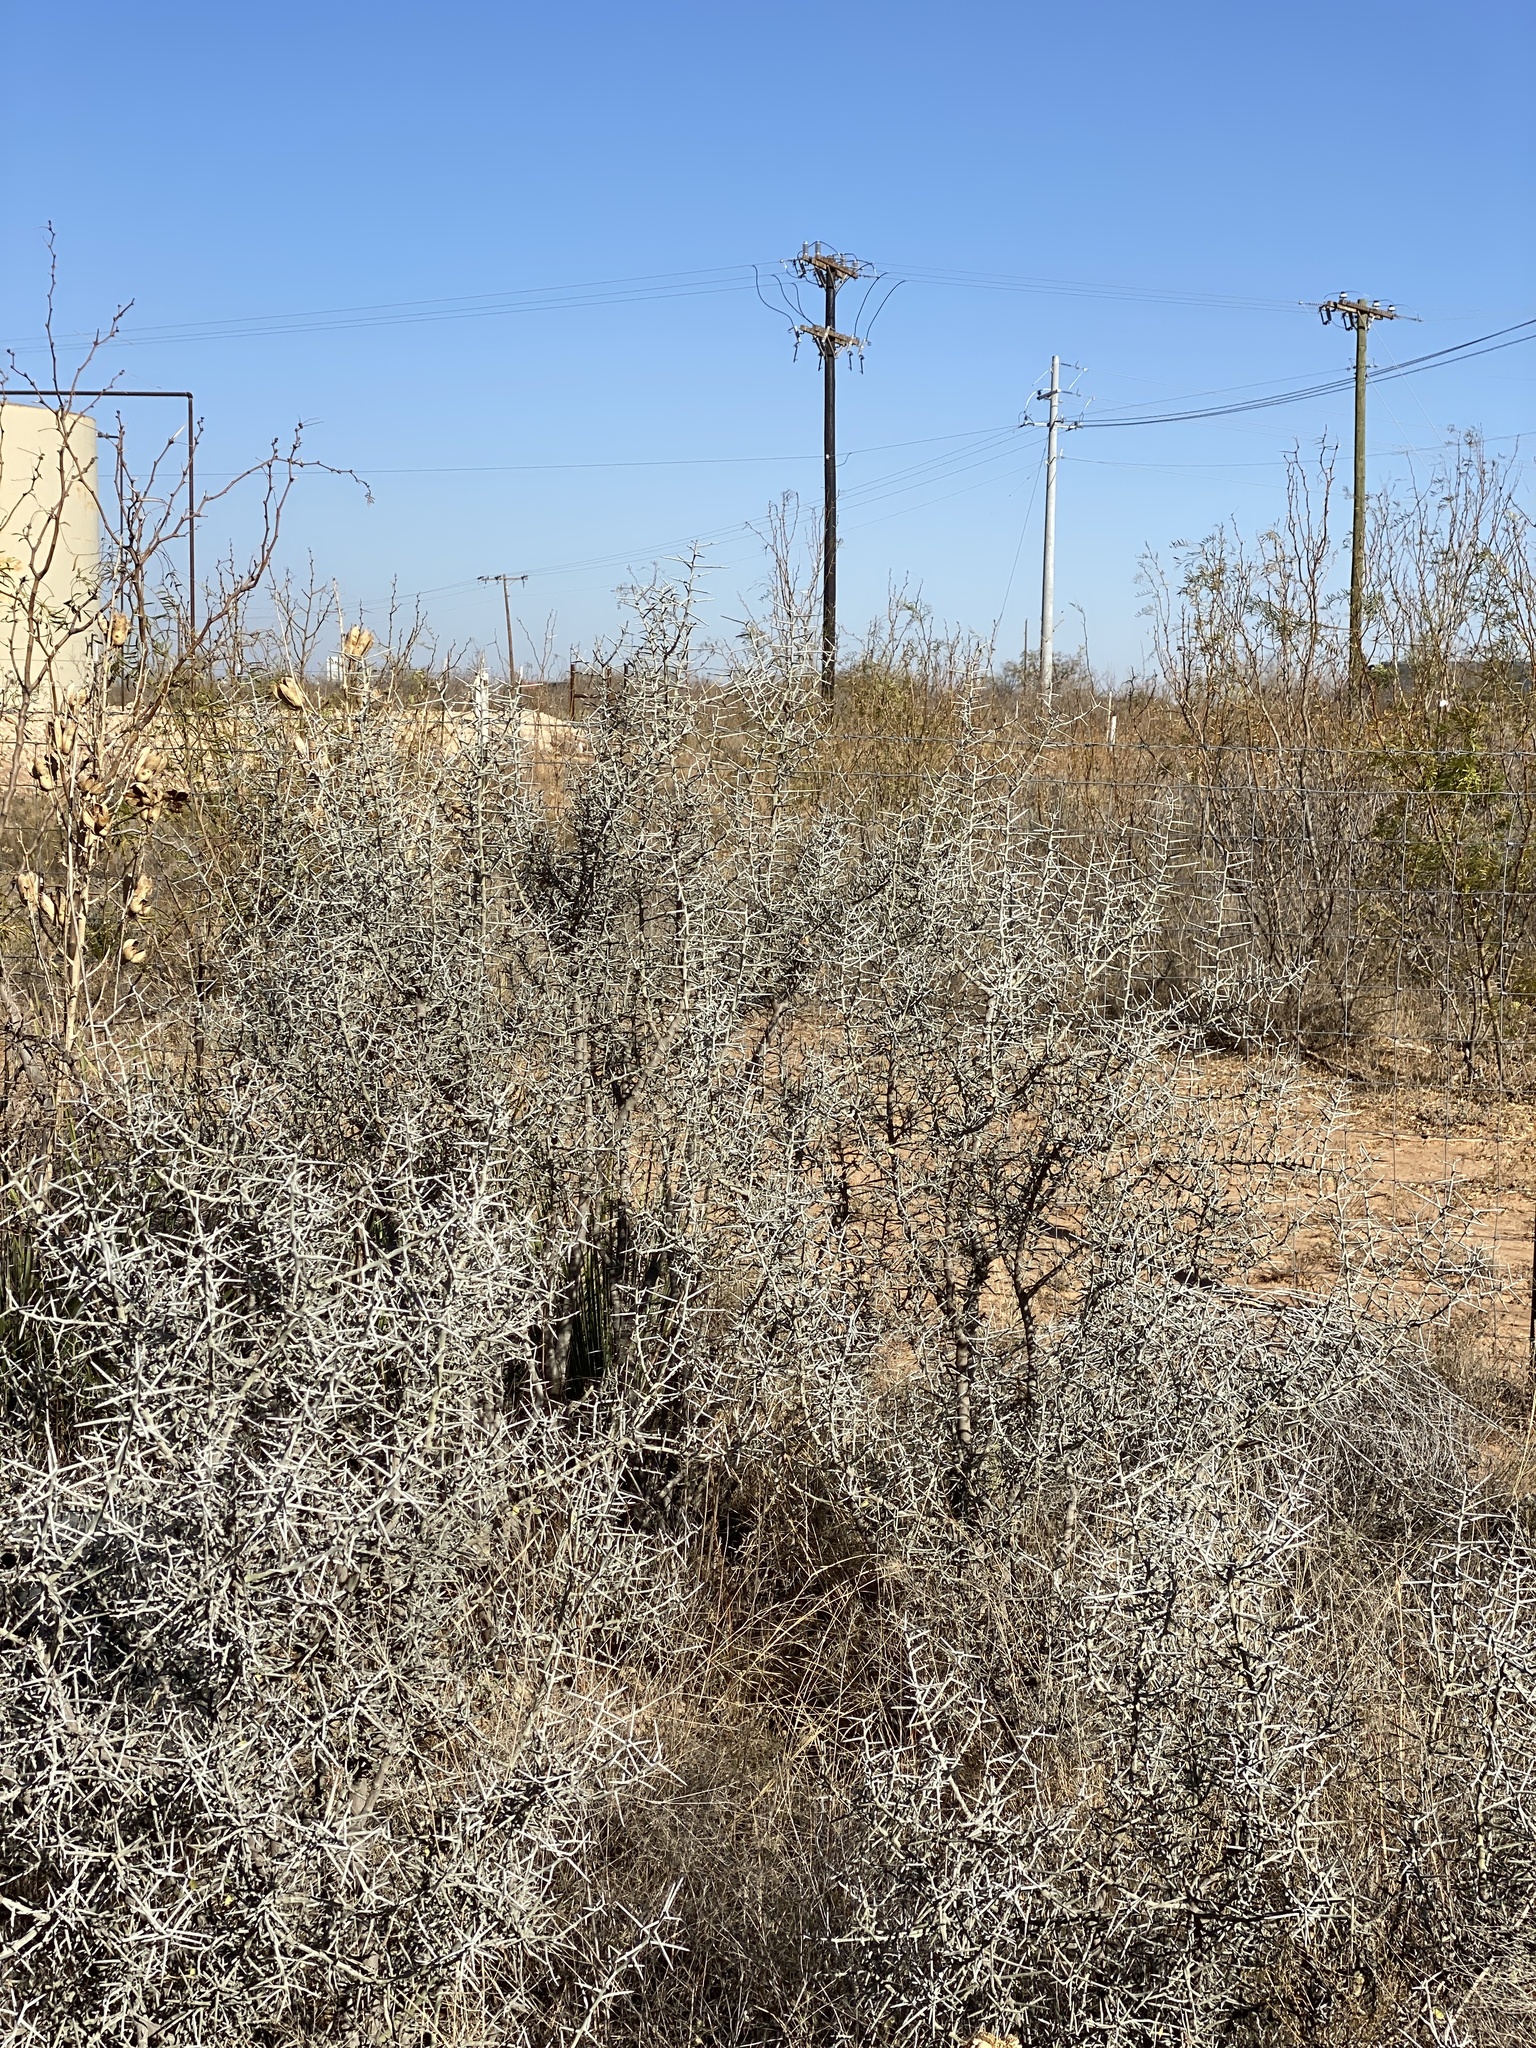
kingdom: Plantae
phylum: Tracheophyta
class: Magnoliopsida
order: Rosales
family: Rhamnaceae
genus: Sarcomphalus
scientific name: Sarcomphalus obtusifolius
